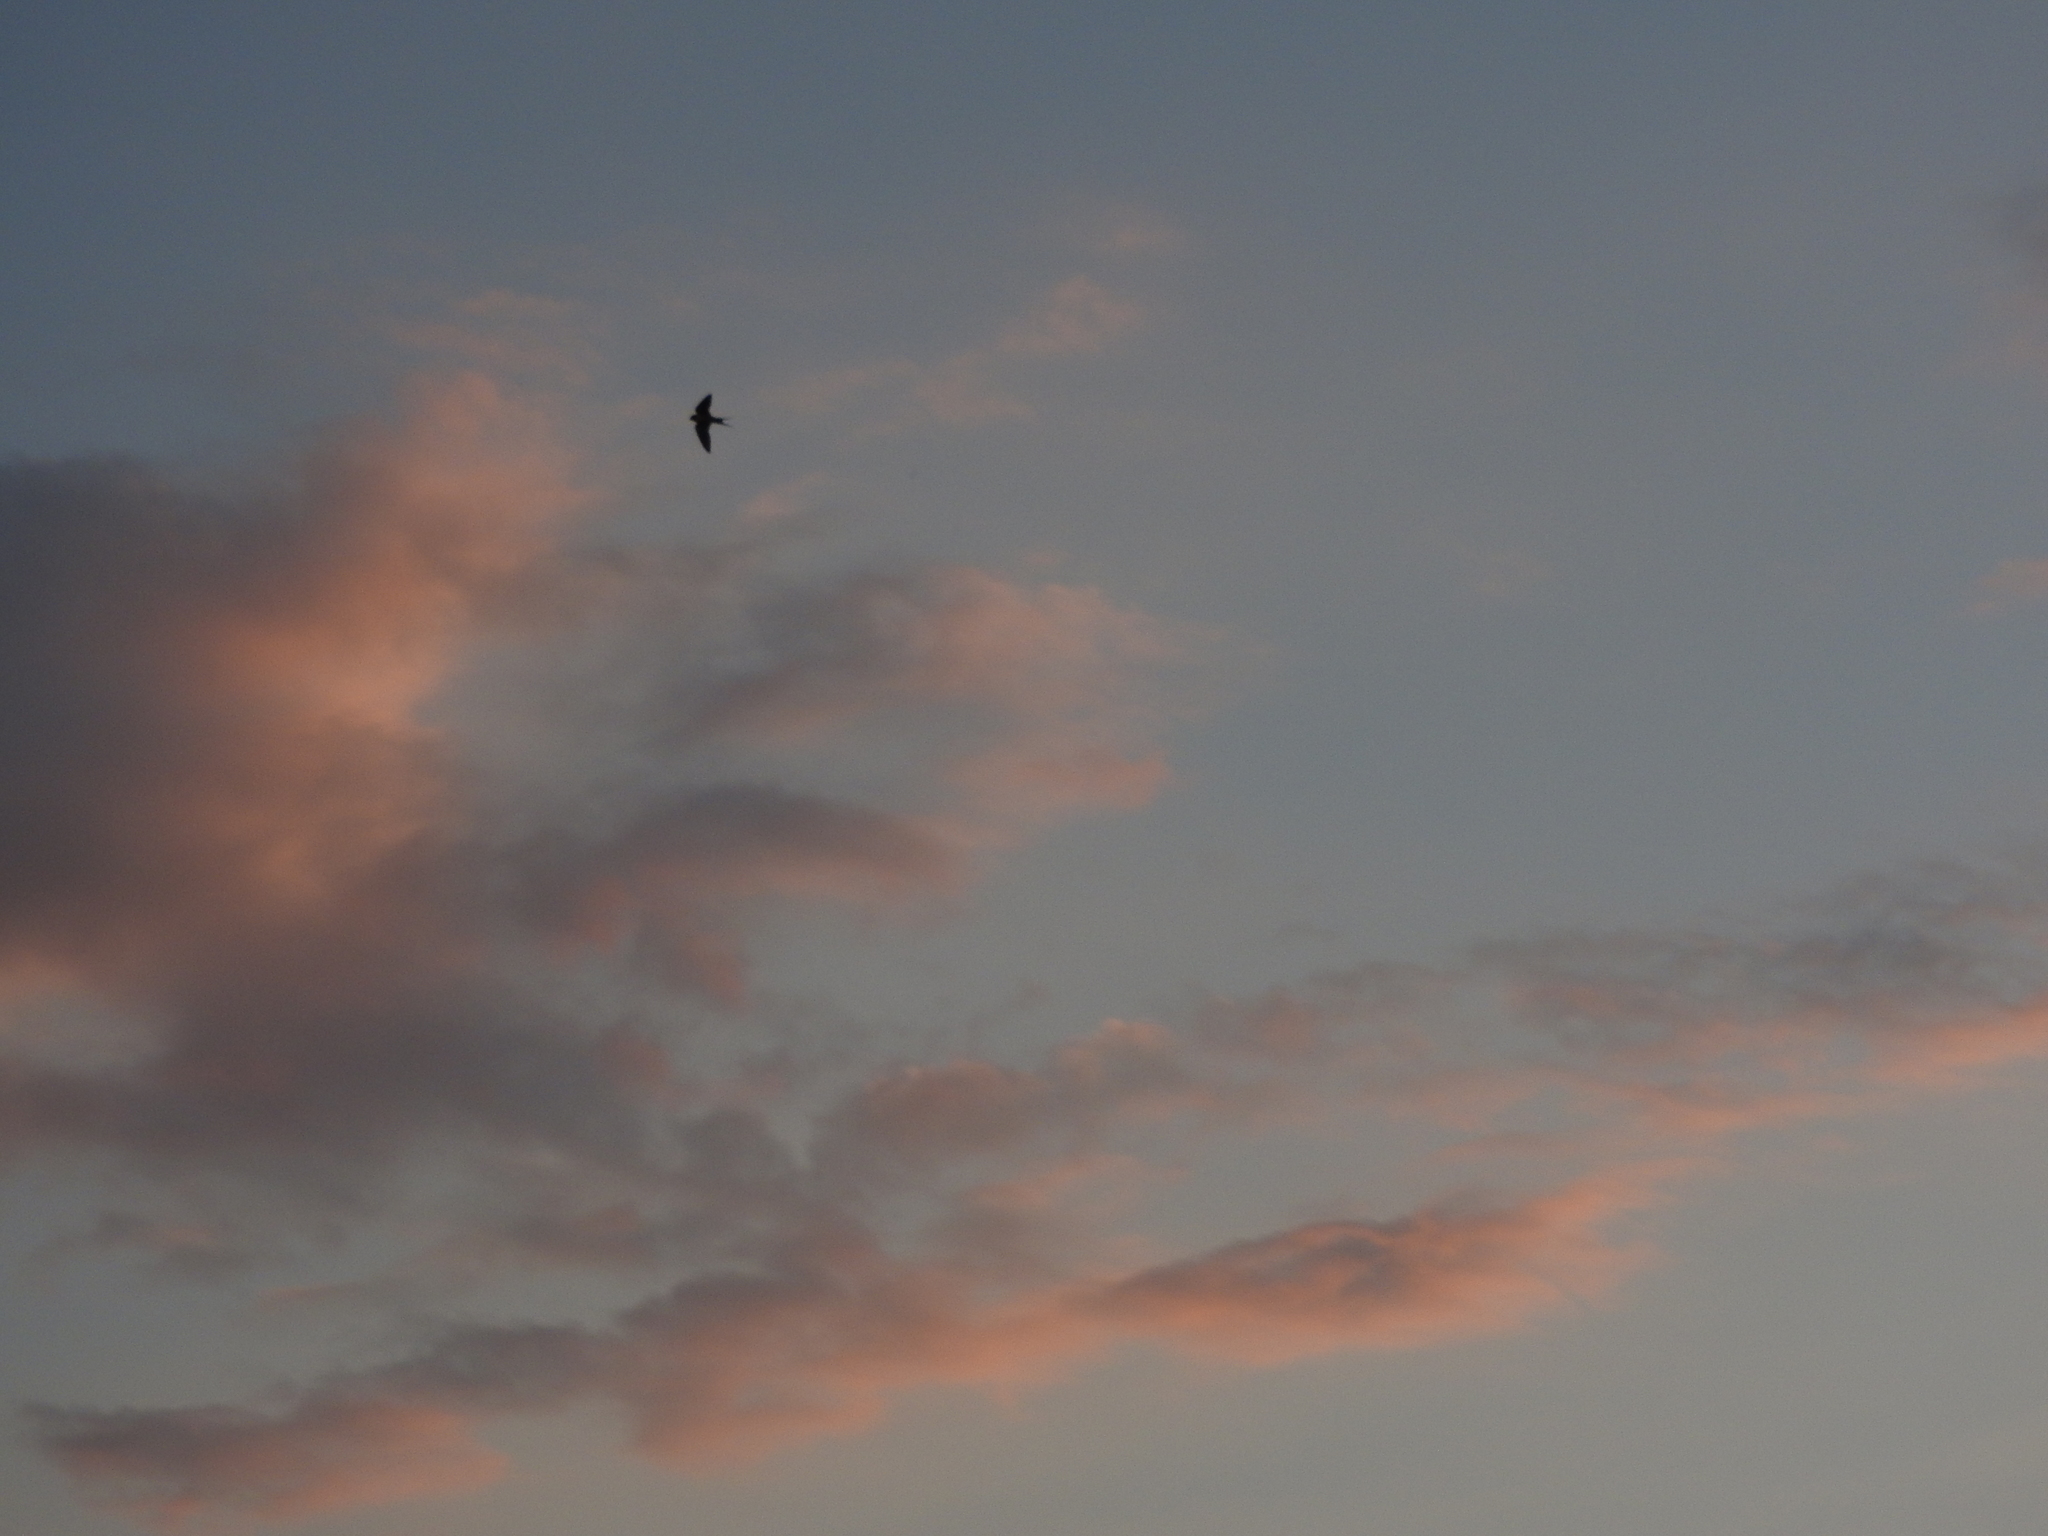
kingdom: Animalia
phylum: Chordata
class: Aves
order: Passeriformes
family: Hirundinidae
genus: Hirundo
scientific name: Hirundo rustica
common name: Barn swallow
